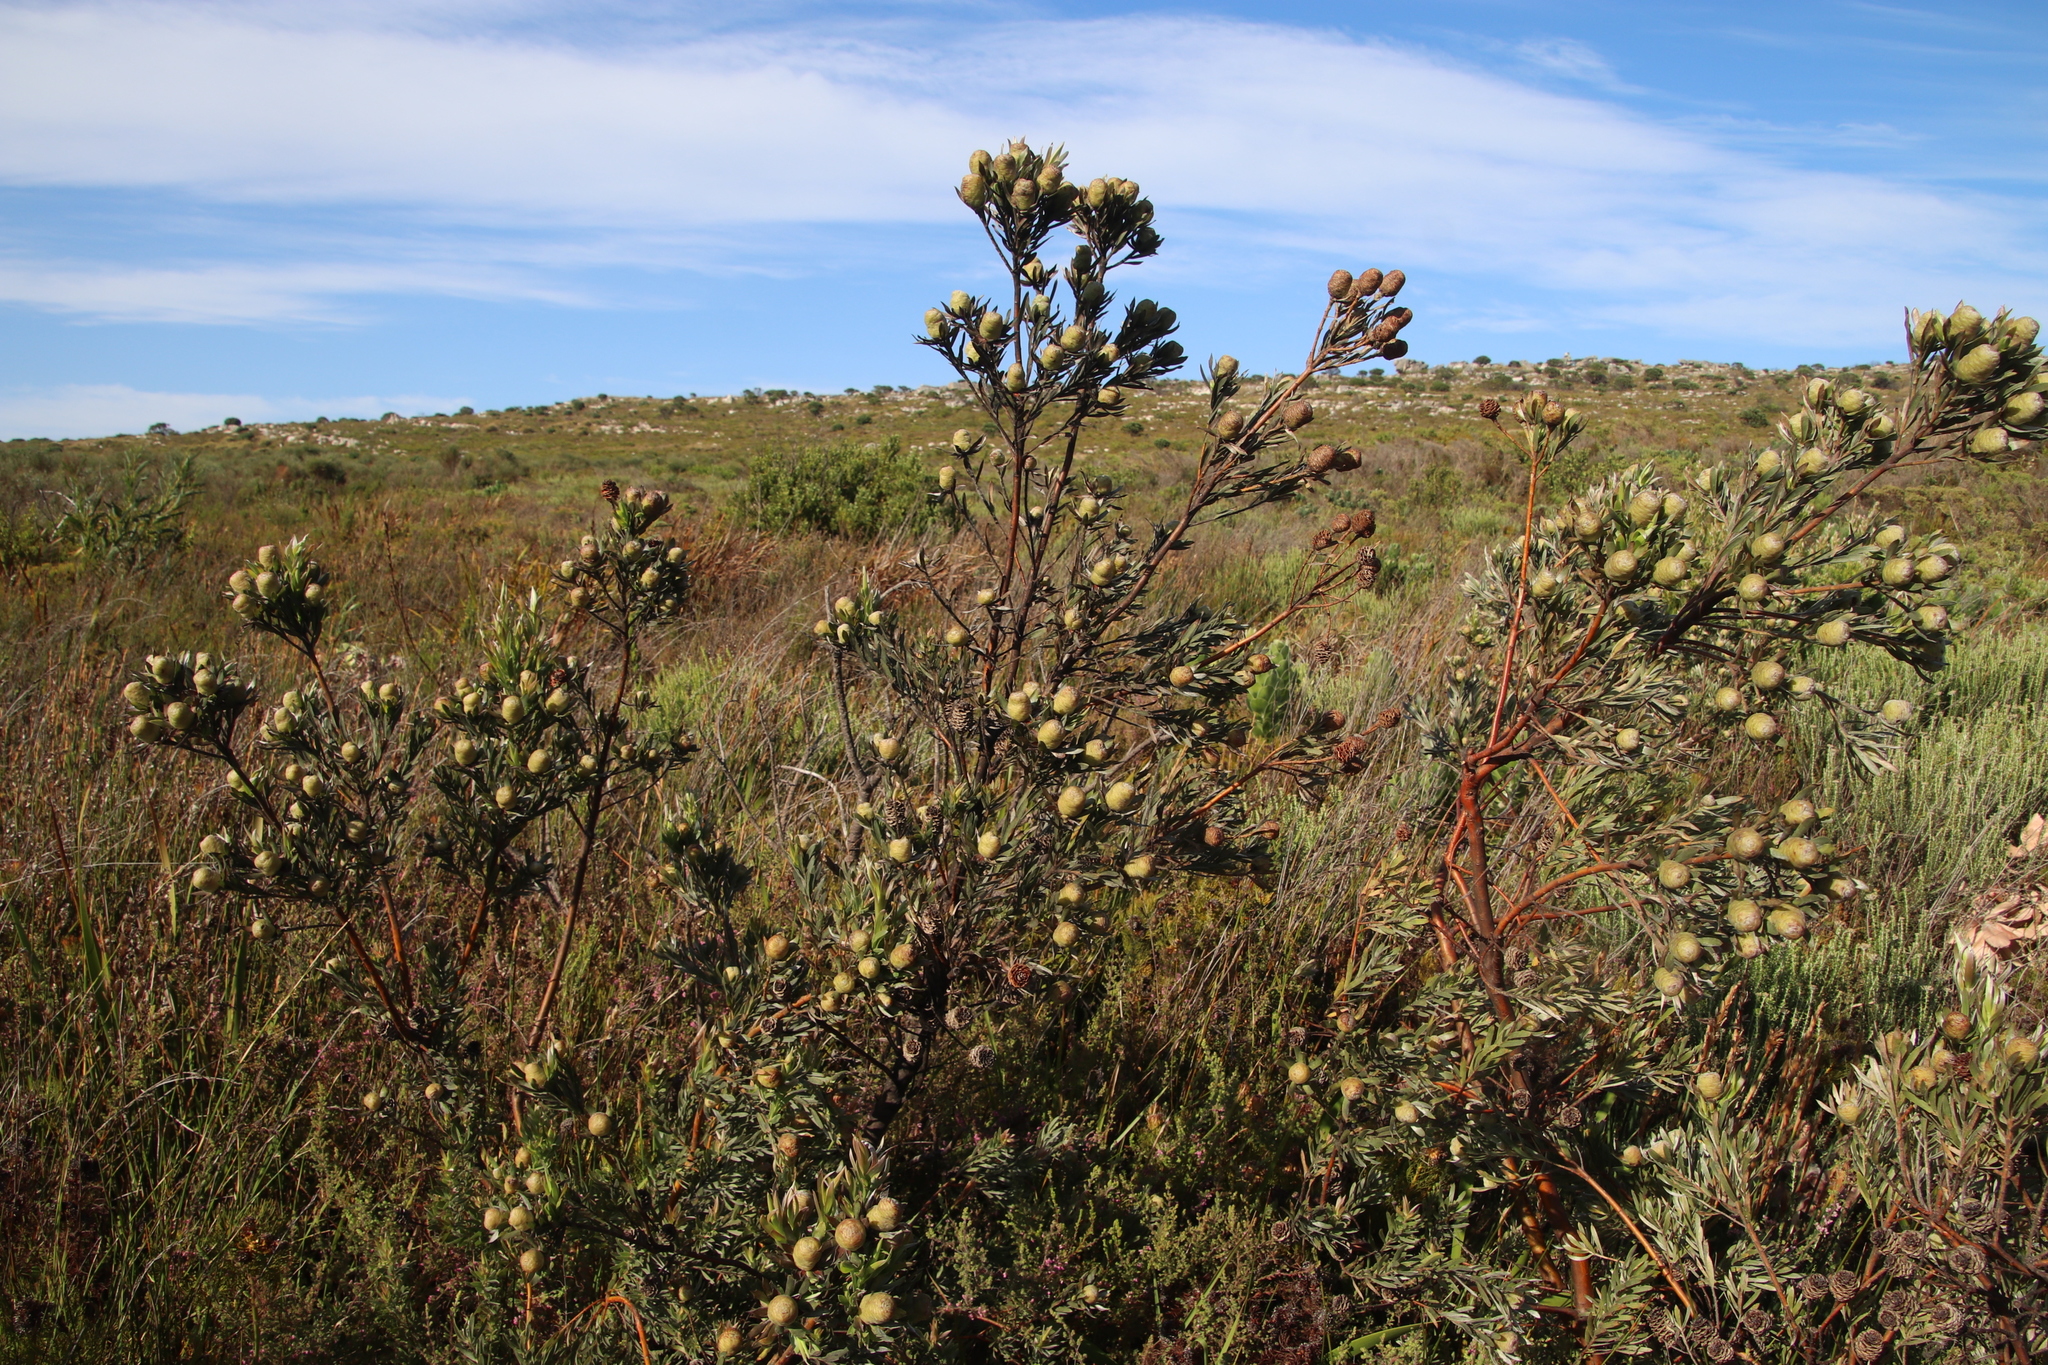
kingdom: Plantae
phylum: Tracheophyta
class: Magnoliopsida
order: Proteales
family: Proteaceae
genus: Leucadendron
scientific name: Leucadendron floridum
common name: Flats conebush
